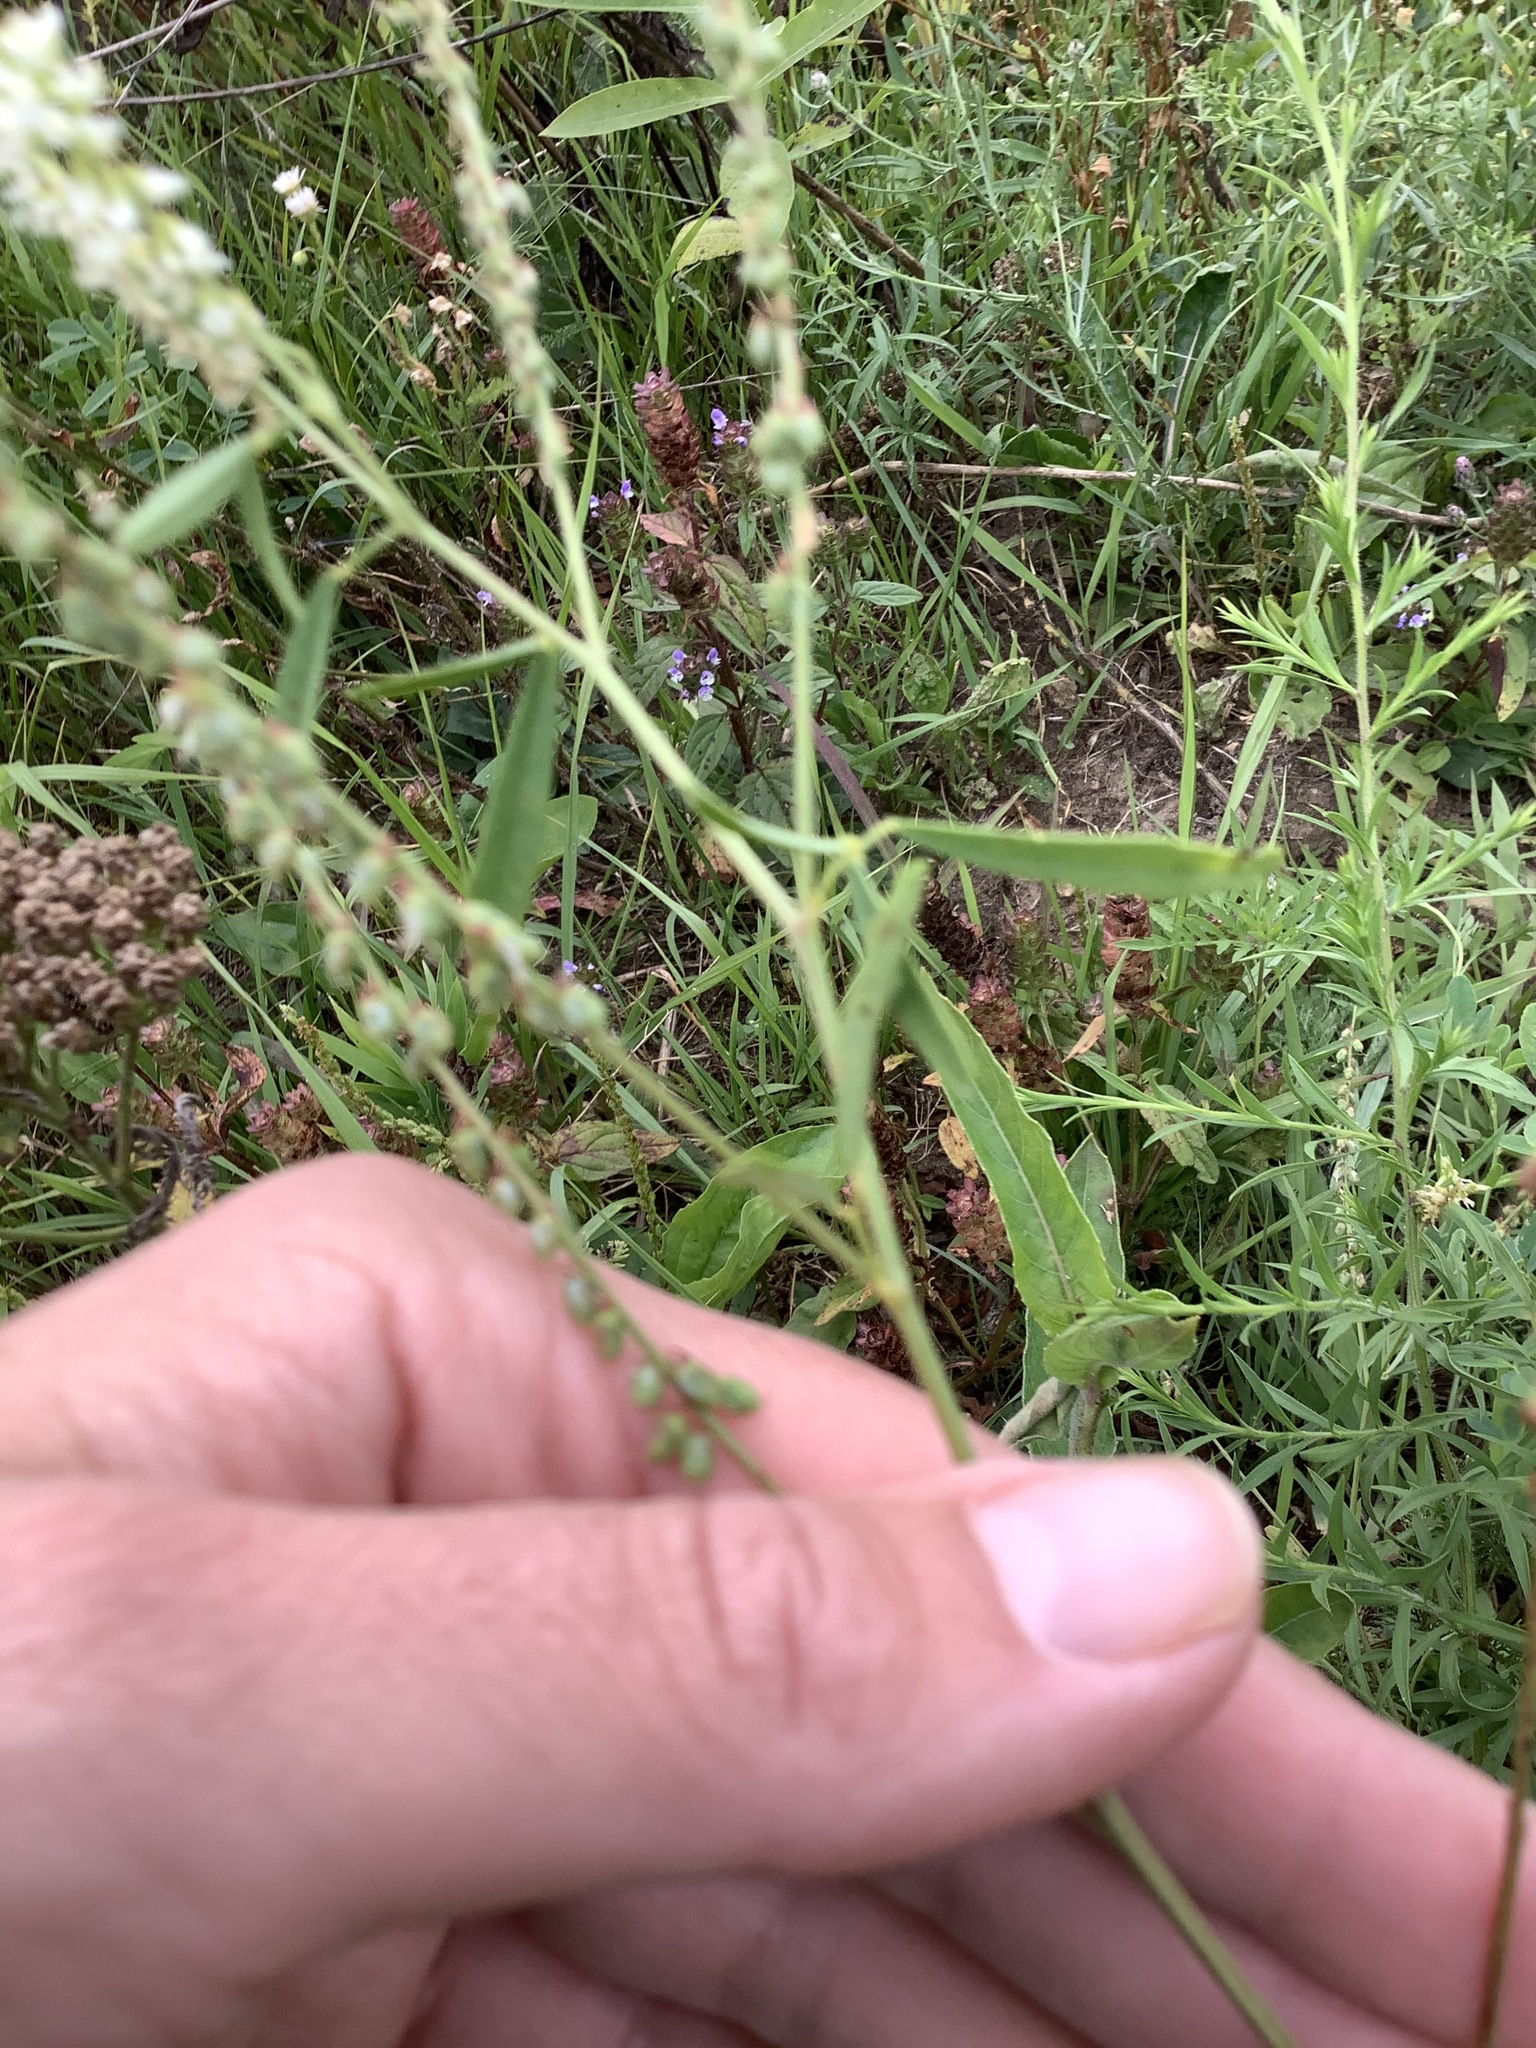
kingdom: Plantae
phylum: Tracheophyta
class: Magnoliopsida
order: Fabales
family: Fabaceae
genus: Melilotus
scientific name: Melilotus albus
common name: White melilot
